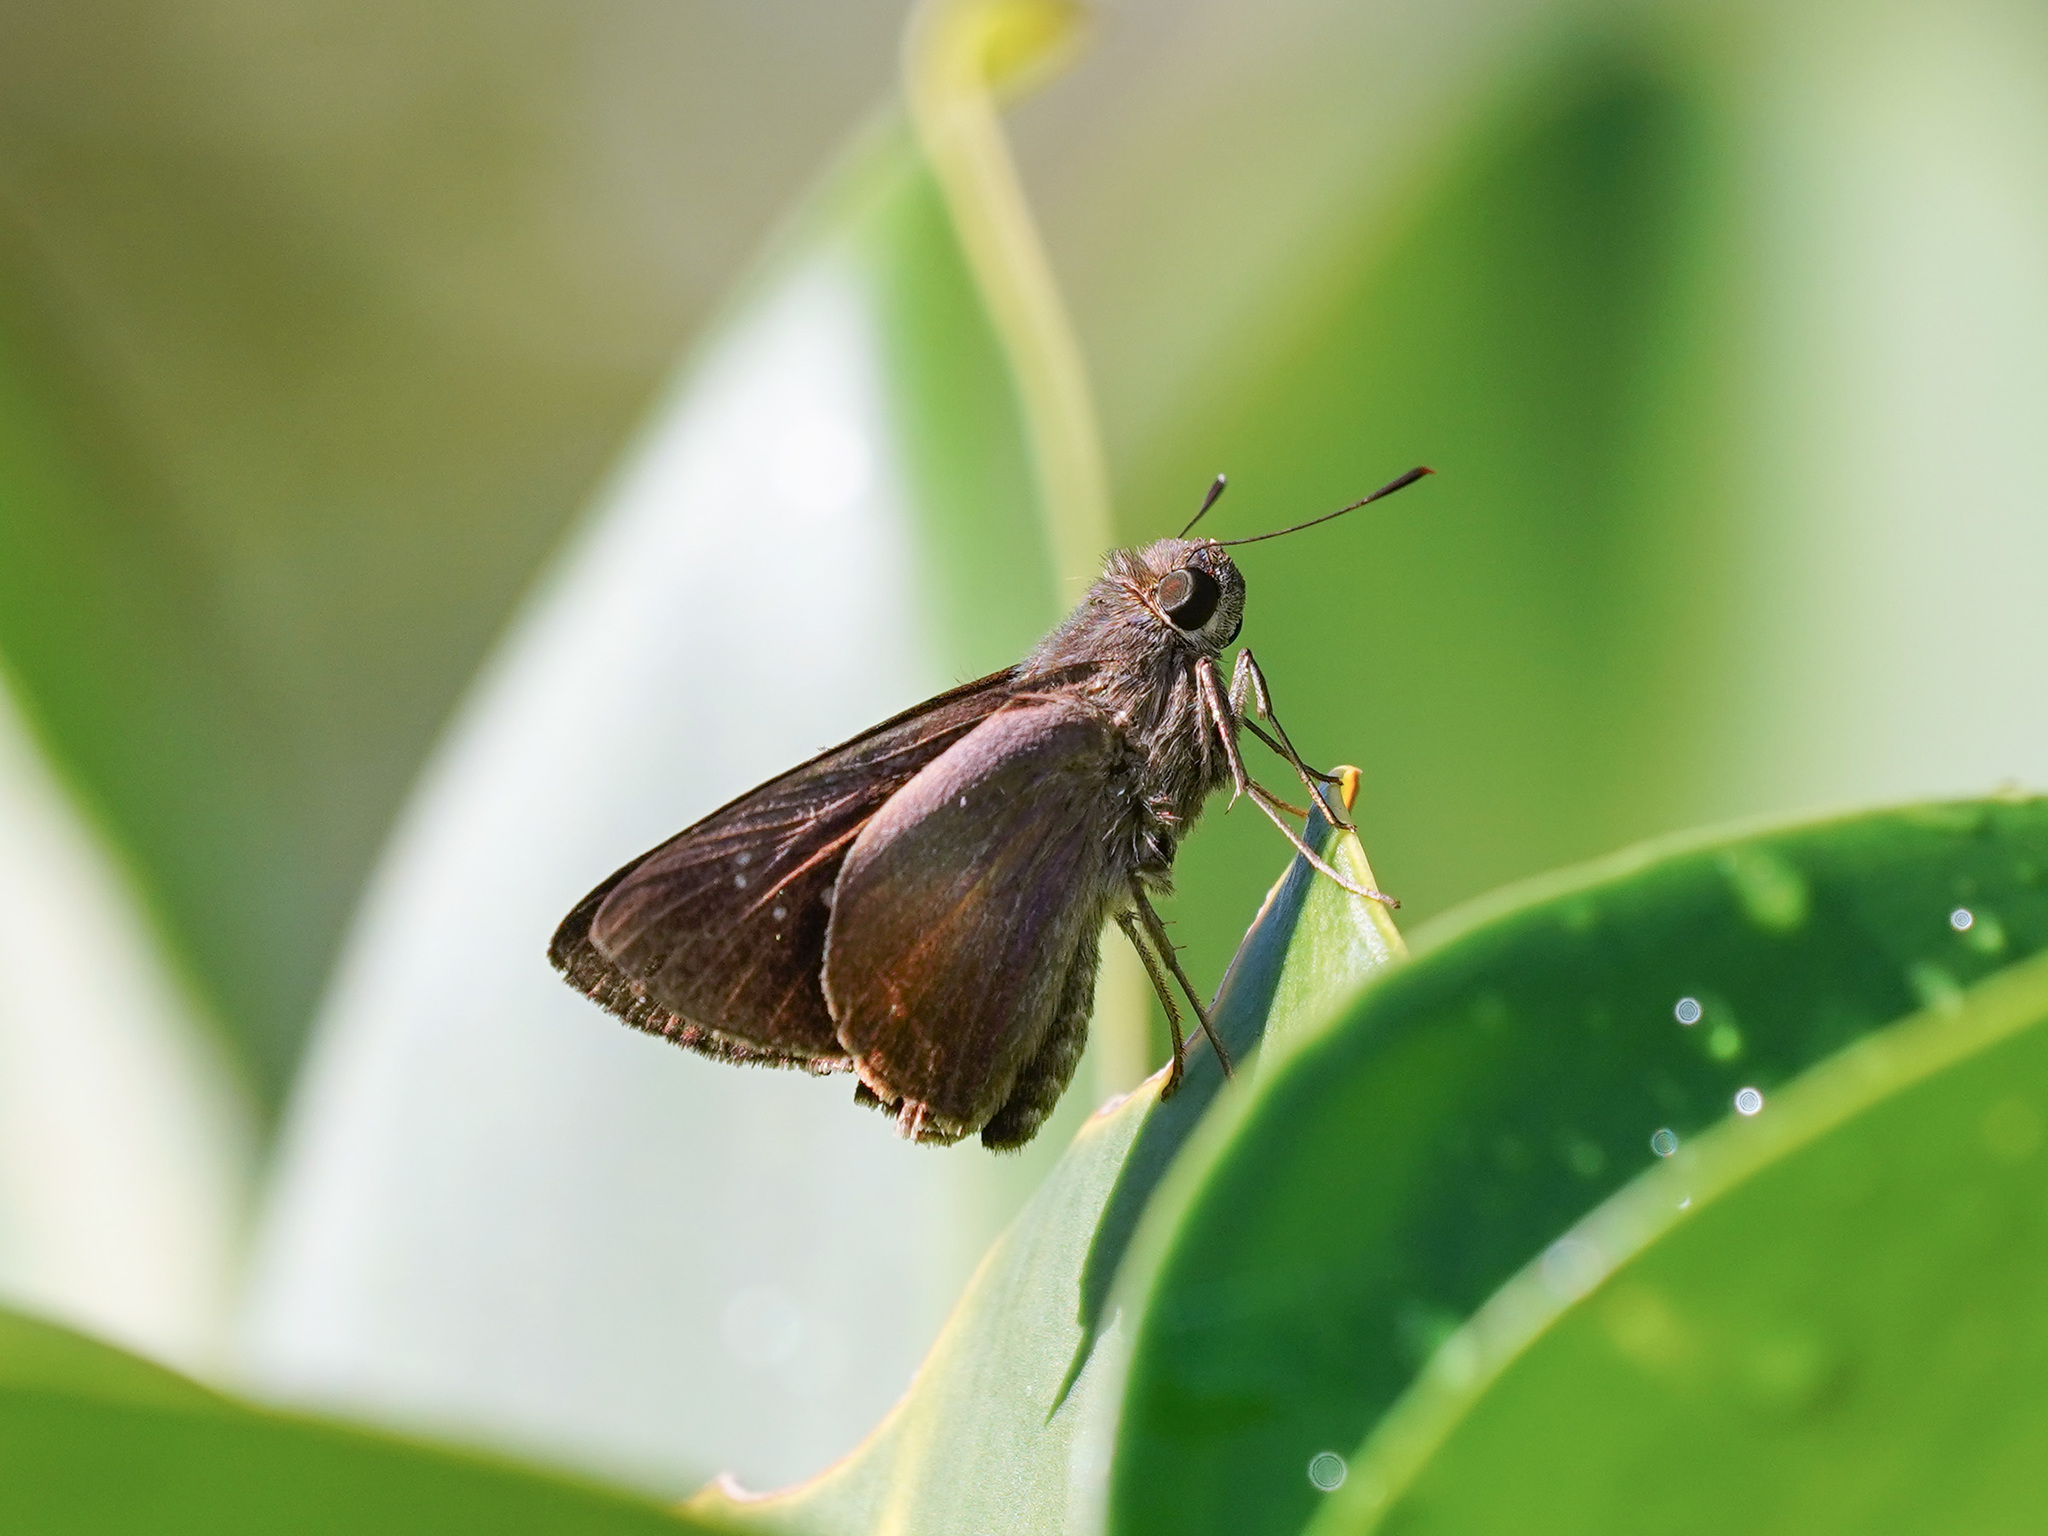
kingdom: Animalia
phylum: Arthropoda
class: Insecta
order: Lepidoptera
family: Hesperiidae
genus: Caltoris
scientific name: Caltoris tulsi
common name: Purple swift
